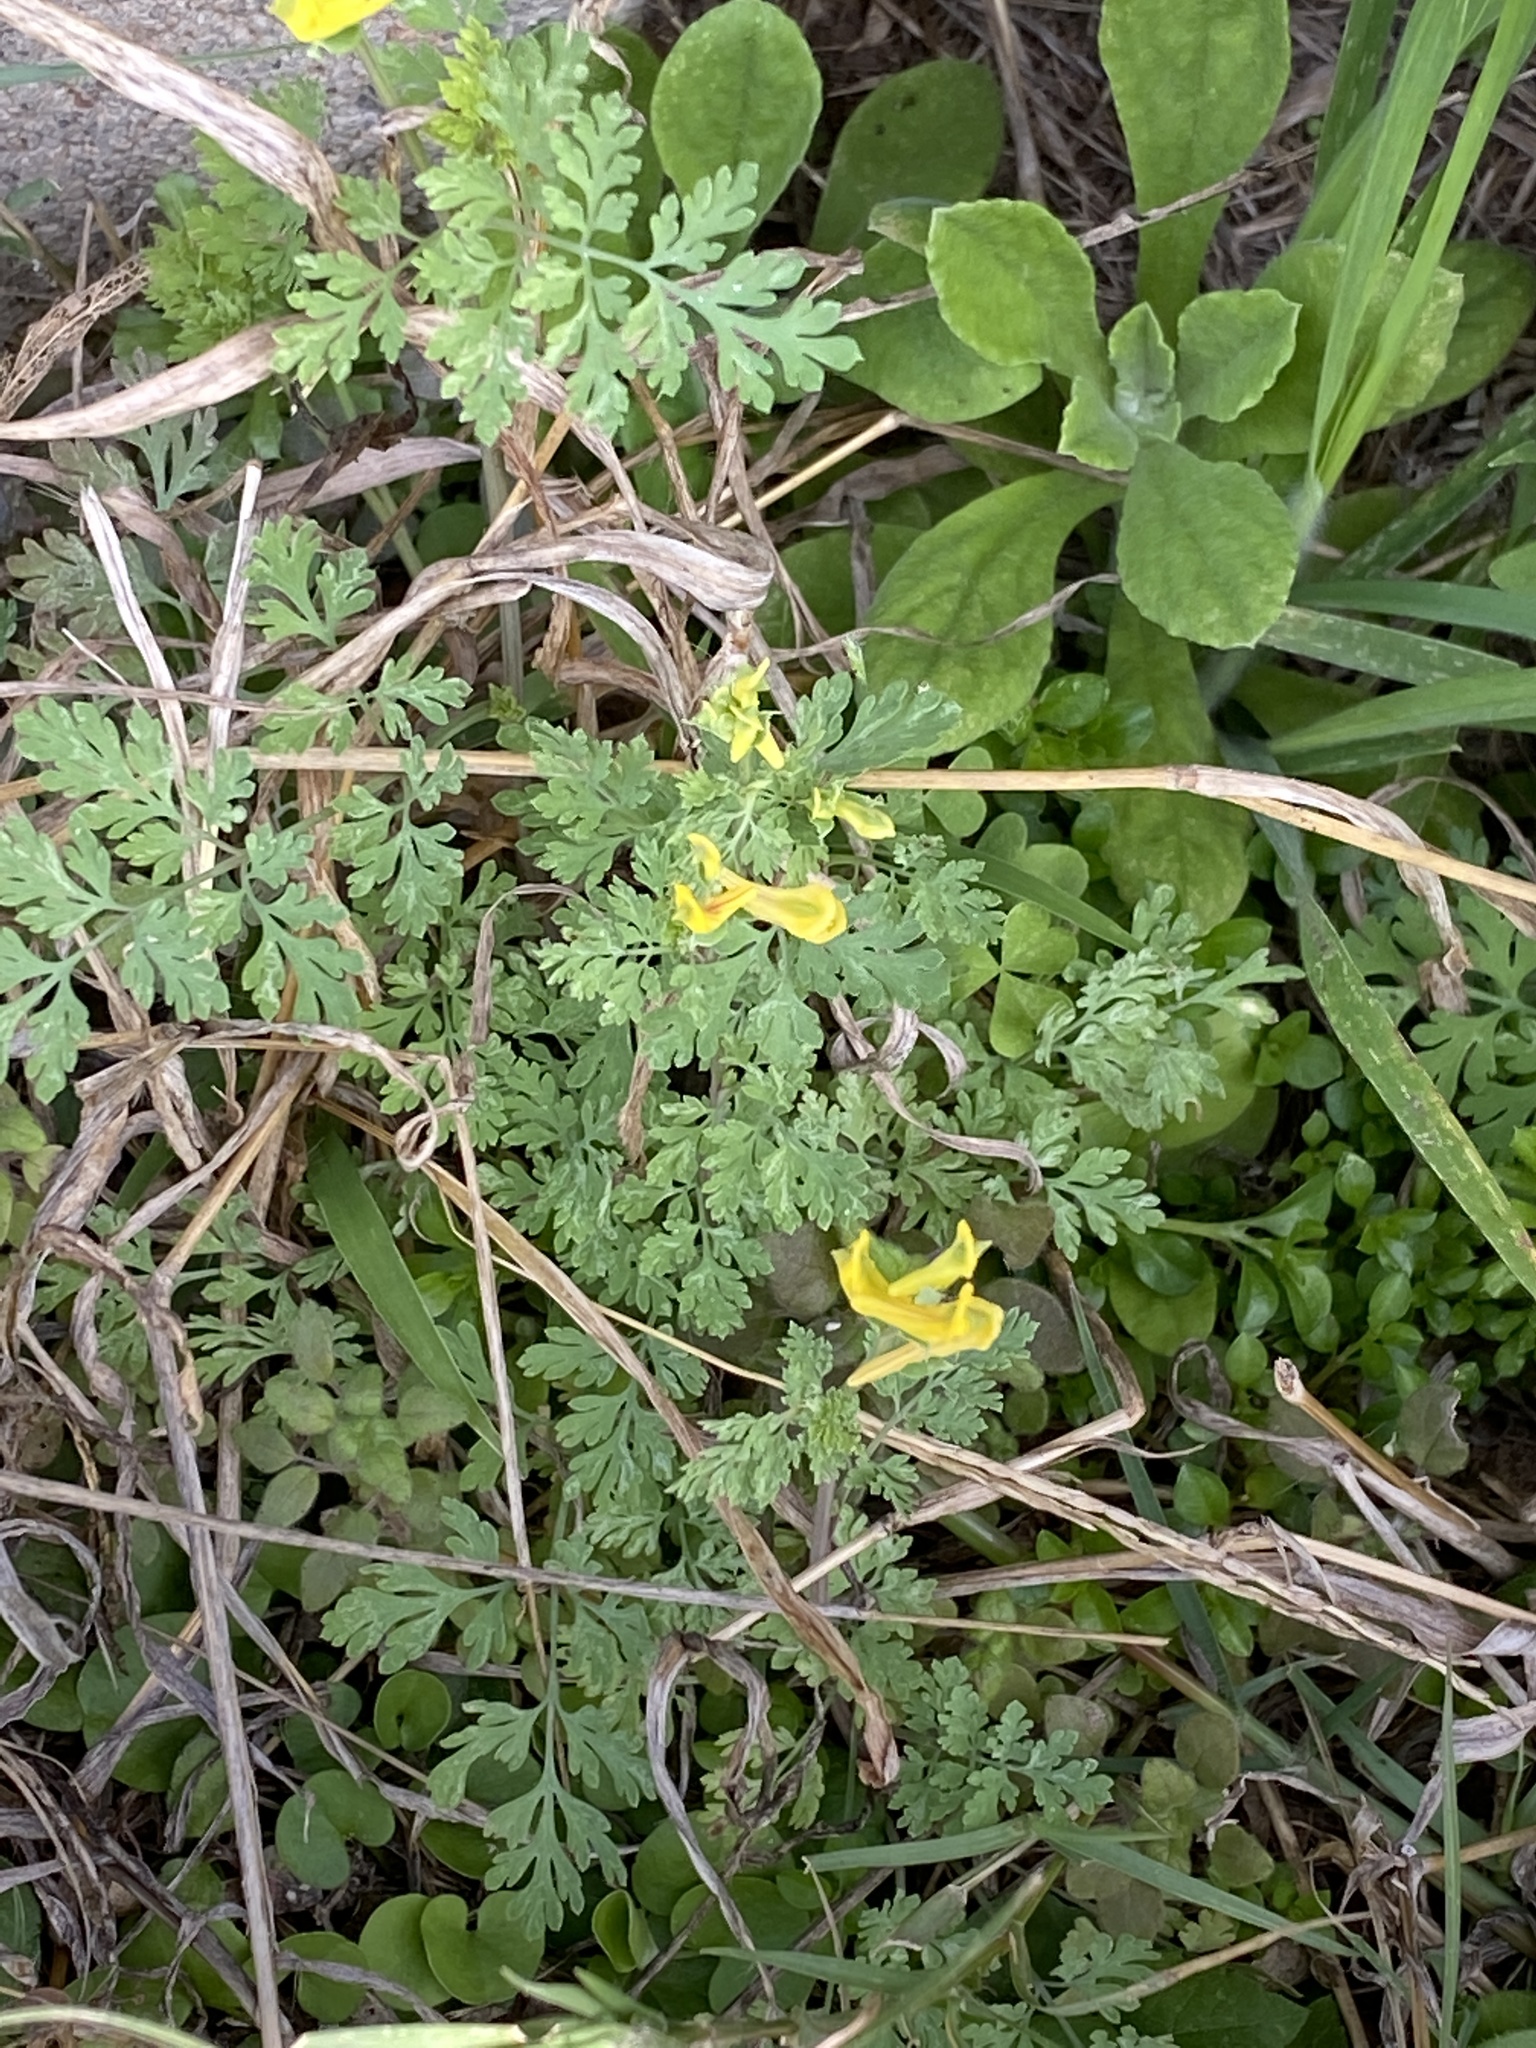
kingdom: Plantae
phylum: Tracheophyta
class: Magnoliopsida
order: Ranunculales
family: Papaveraceae
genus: Corydalis
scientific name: Corydalis aurea
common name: Golden corydalis
